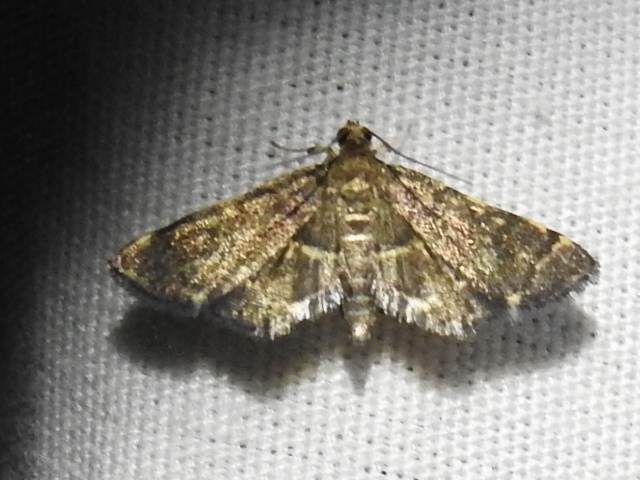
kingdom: Animalia
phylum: Arthropoda
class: Insecta
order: Lepidoptera
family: Crambidae
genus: Anageshna
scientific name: Anageshna primordialis
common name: Yellow-spotted webworm moth
